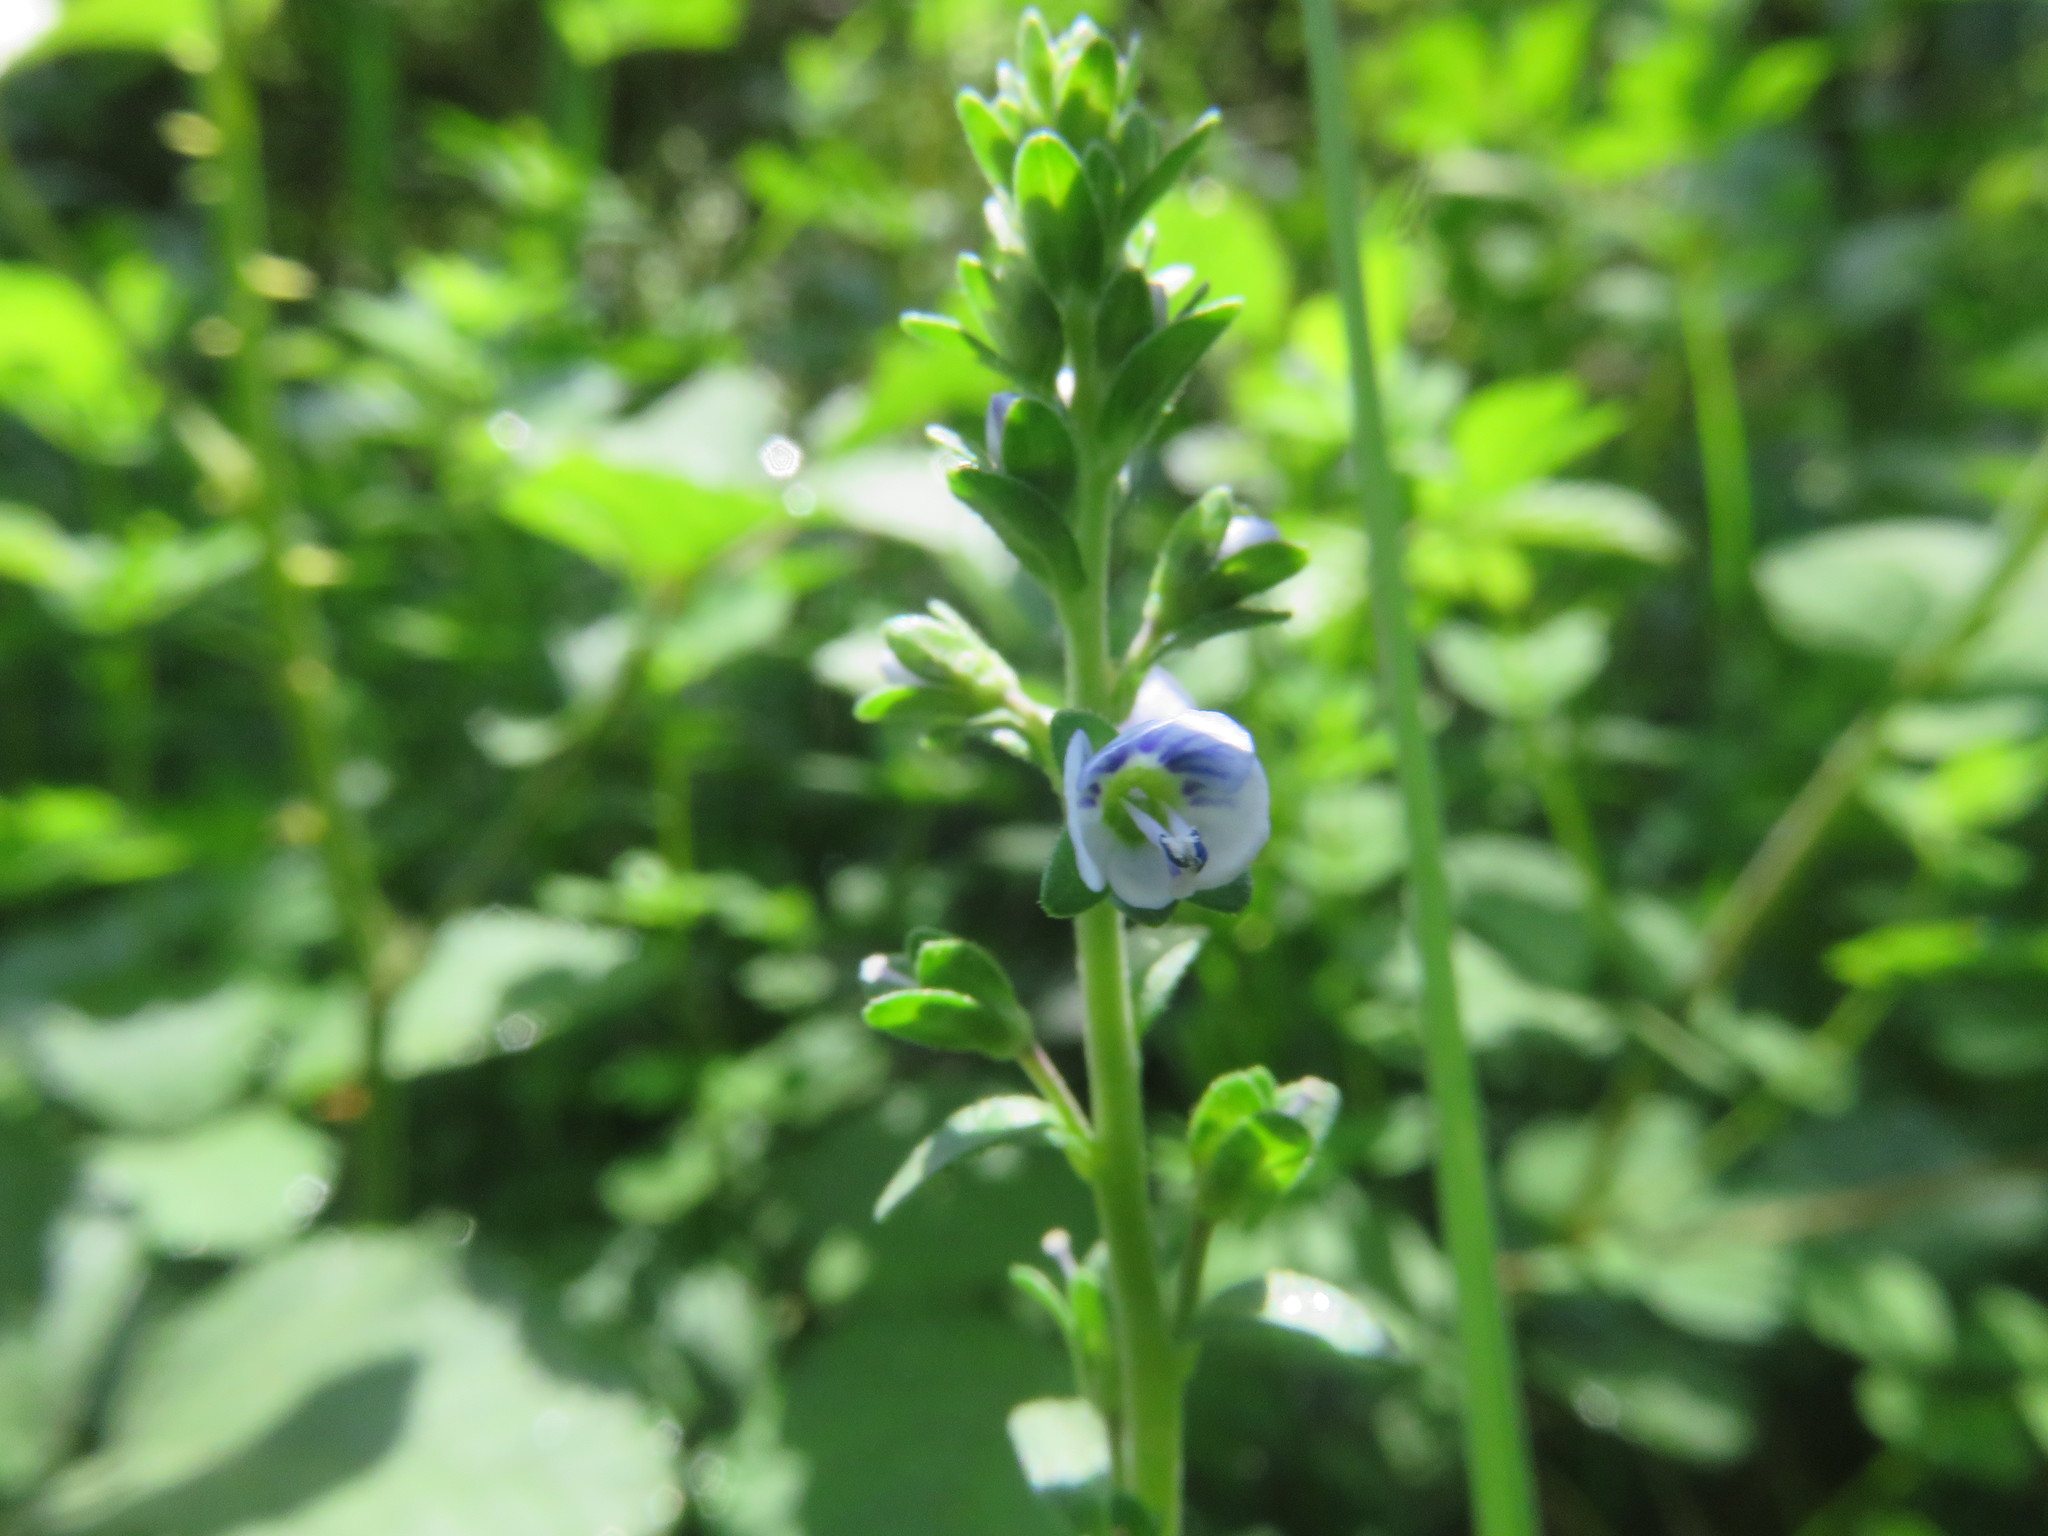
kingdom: Plantae
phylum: Tracheophyta
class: Magnoliopsida
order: Lamiales
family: Plantaginaceae
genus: Veronica
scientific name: Veronica serpyllifolia
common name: Thyme-leaved speedwell
